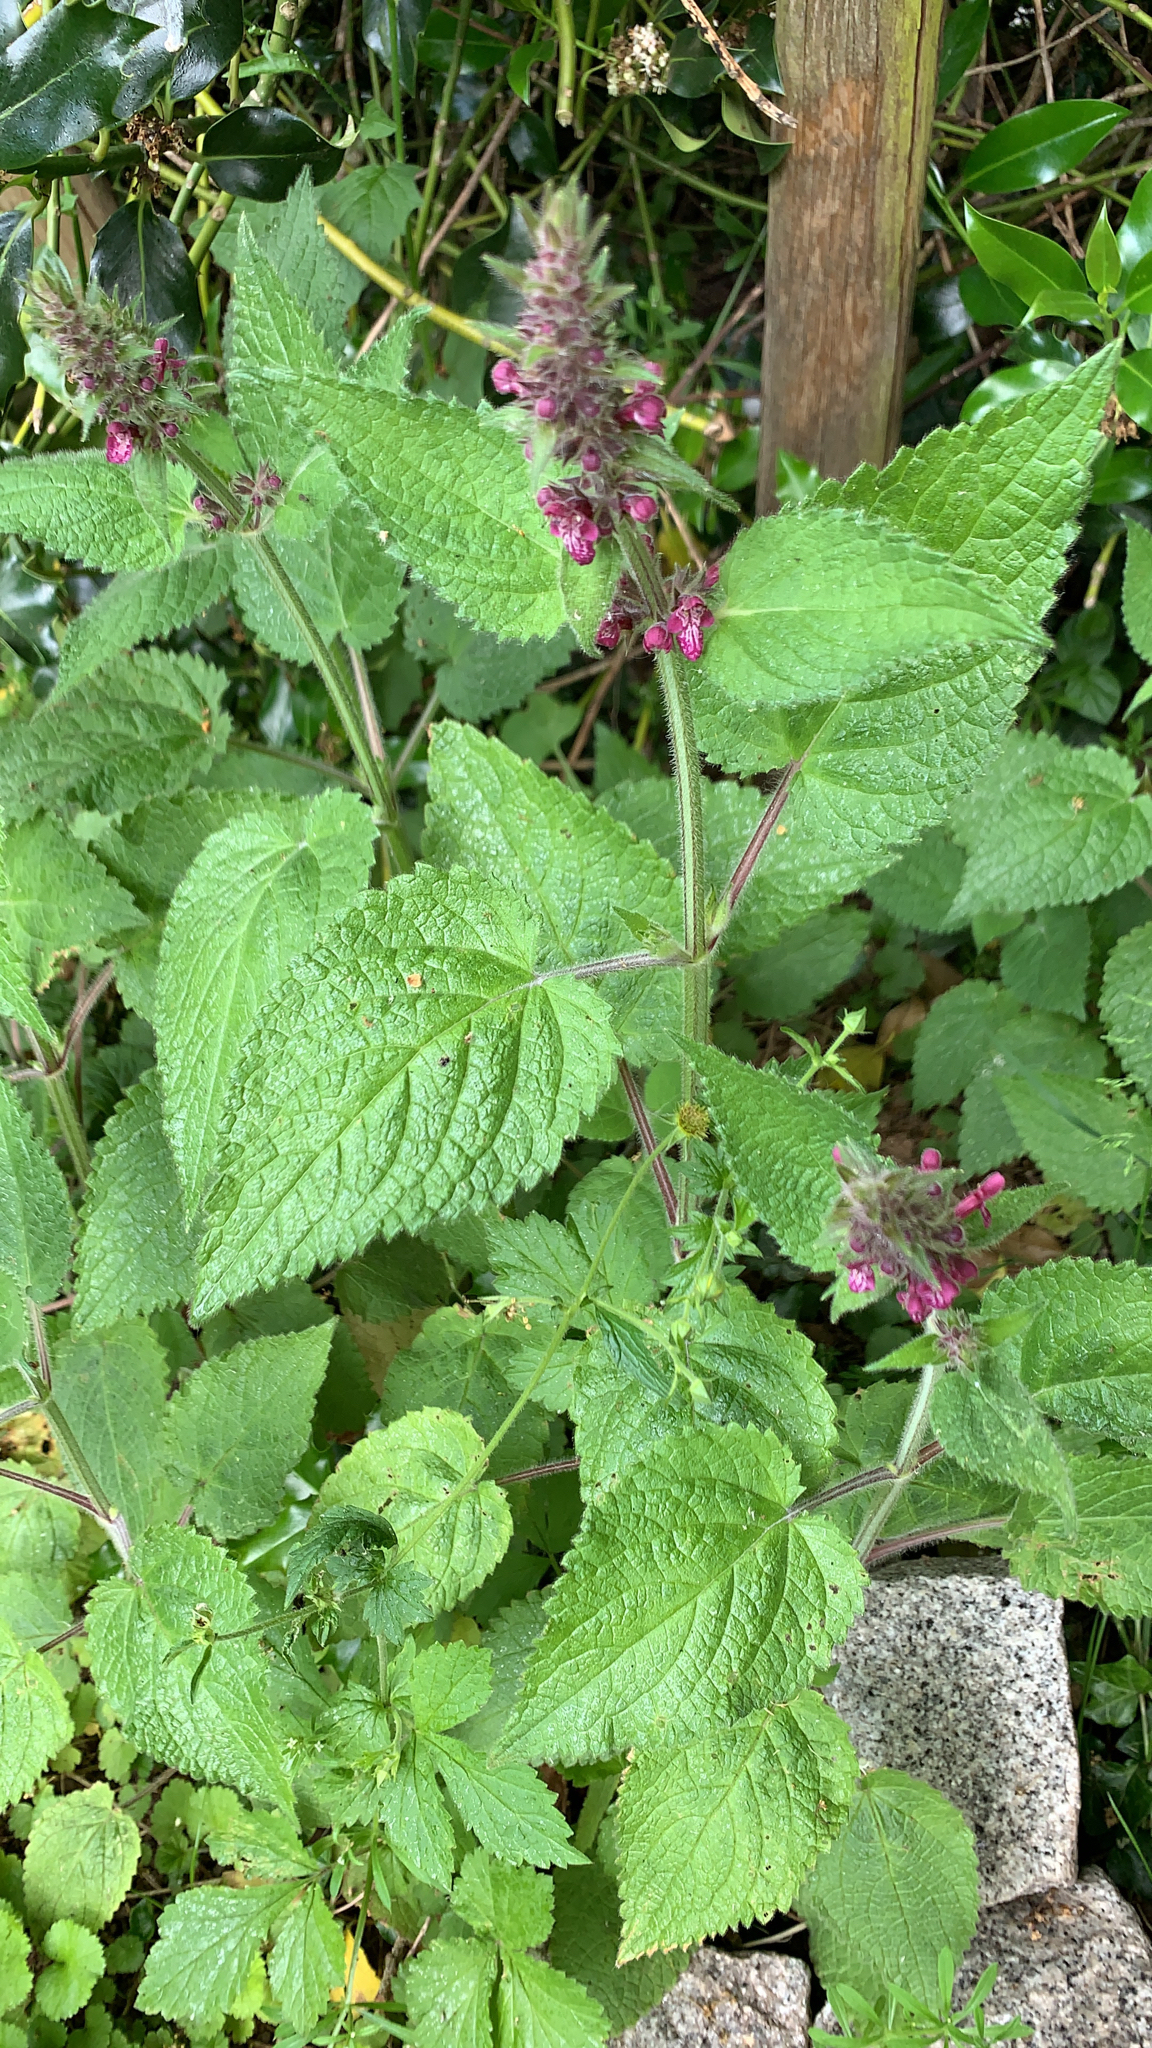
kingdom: Plantae
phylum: Tracheophyta
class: Magnoliopsida
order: Lamiales
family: Lamiaceae
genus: Stachys
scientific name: Stachys sylvatica
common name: Hedge woundwort
